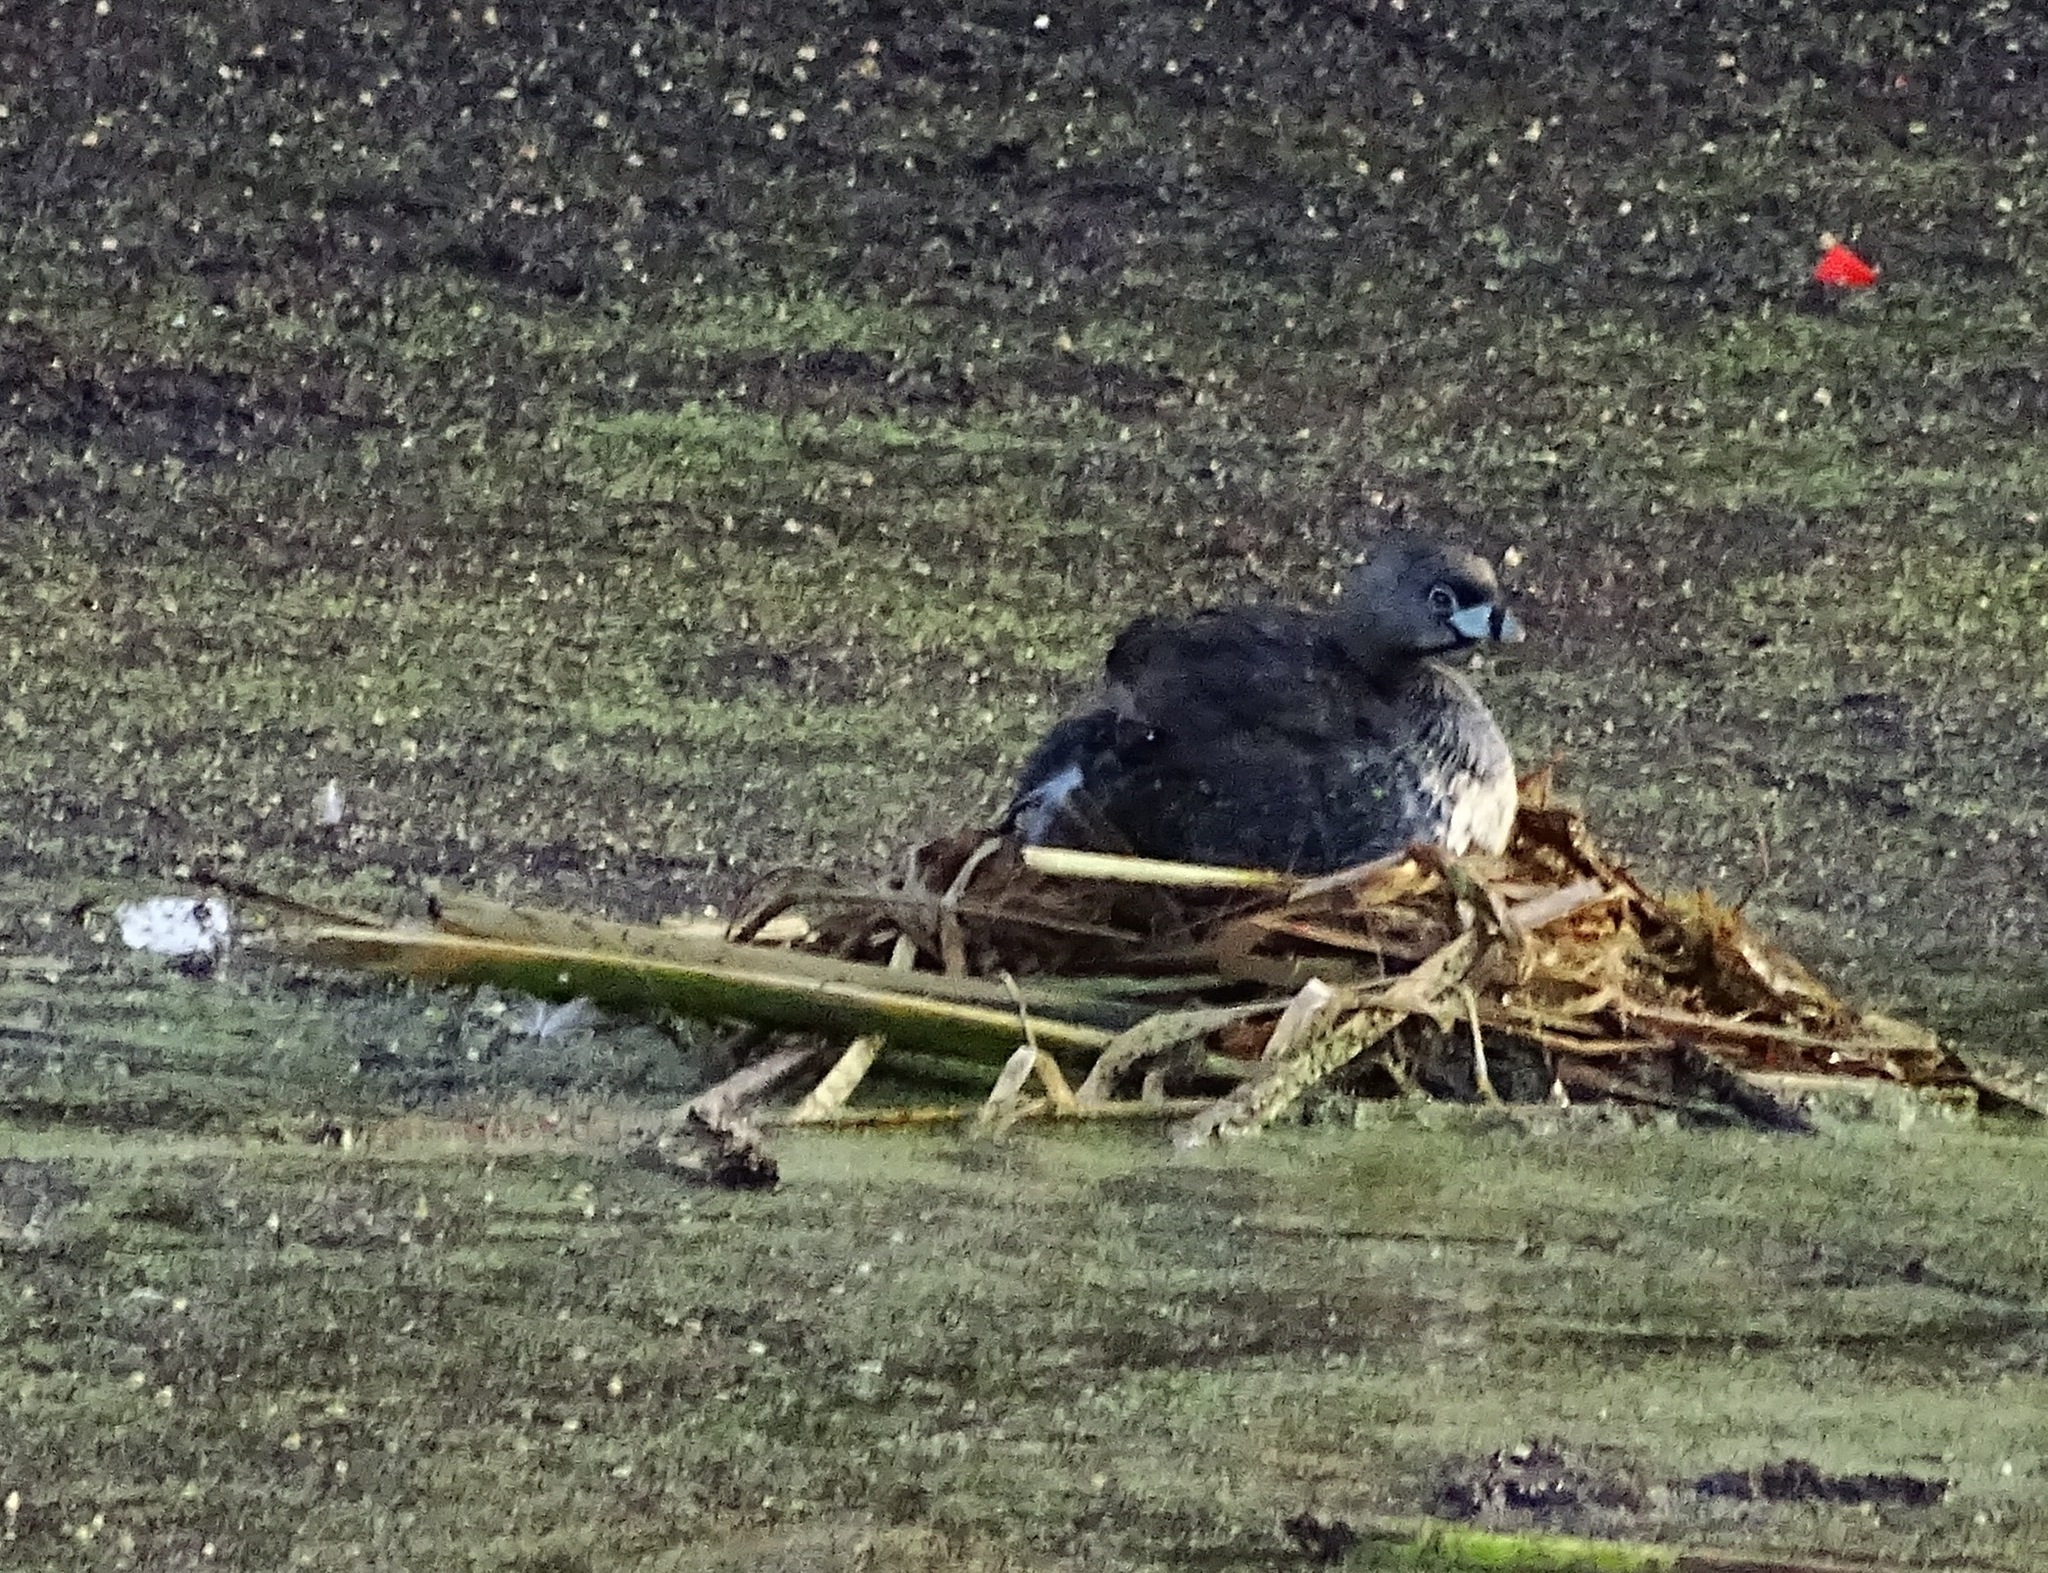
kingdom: Animalia
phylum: Chordata
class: Aves
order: Podicipediformes
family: Podicipedidae
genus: Podilymbus
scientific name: Podilymbus podiceps
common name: Pied-billed grebe
